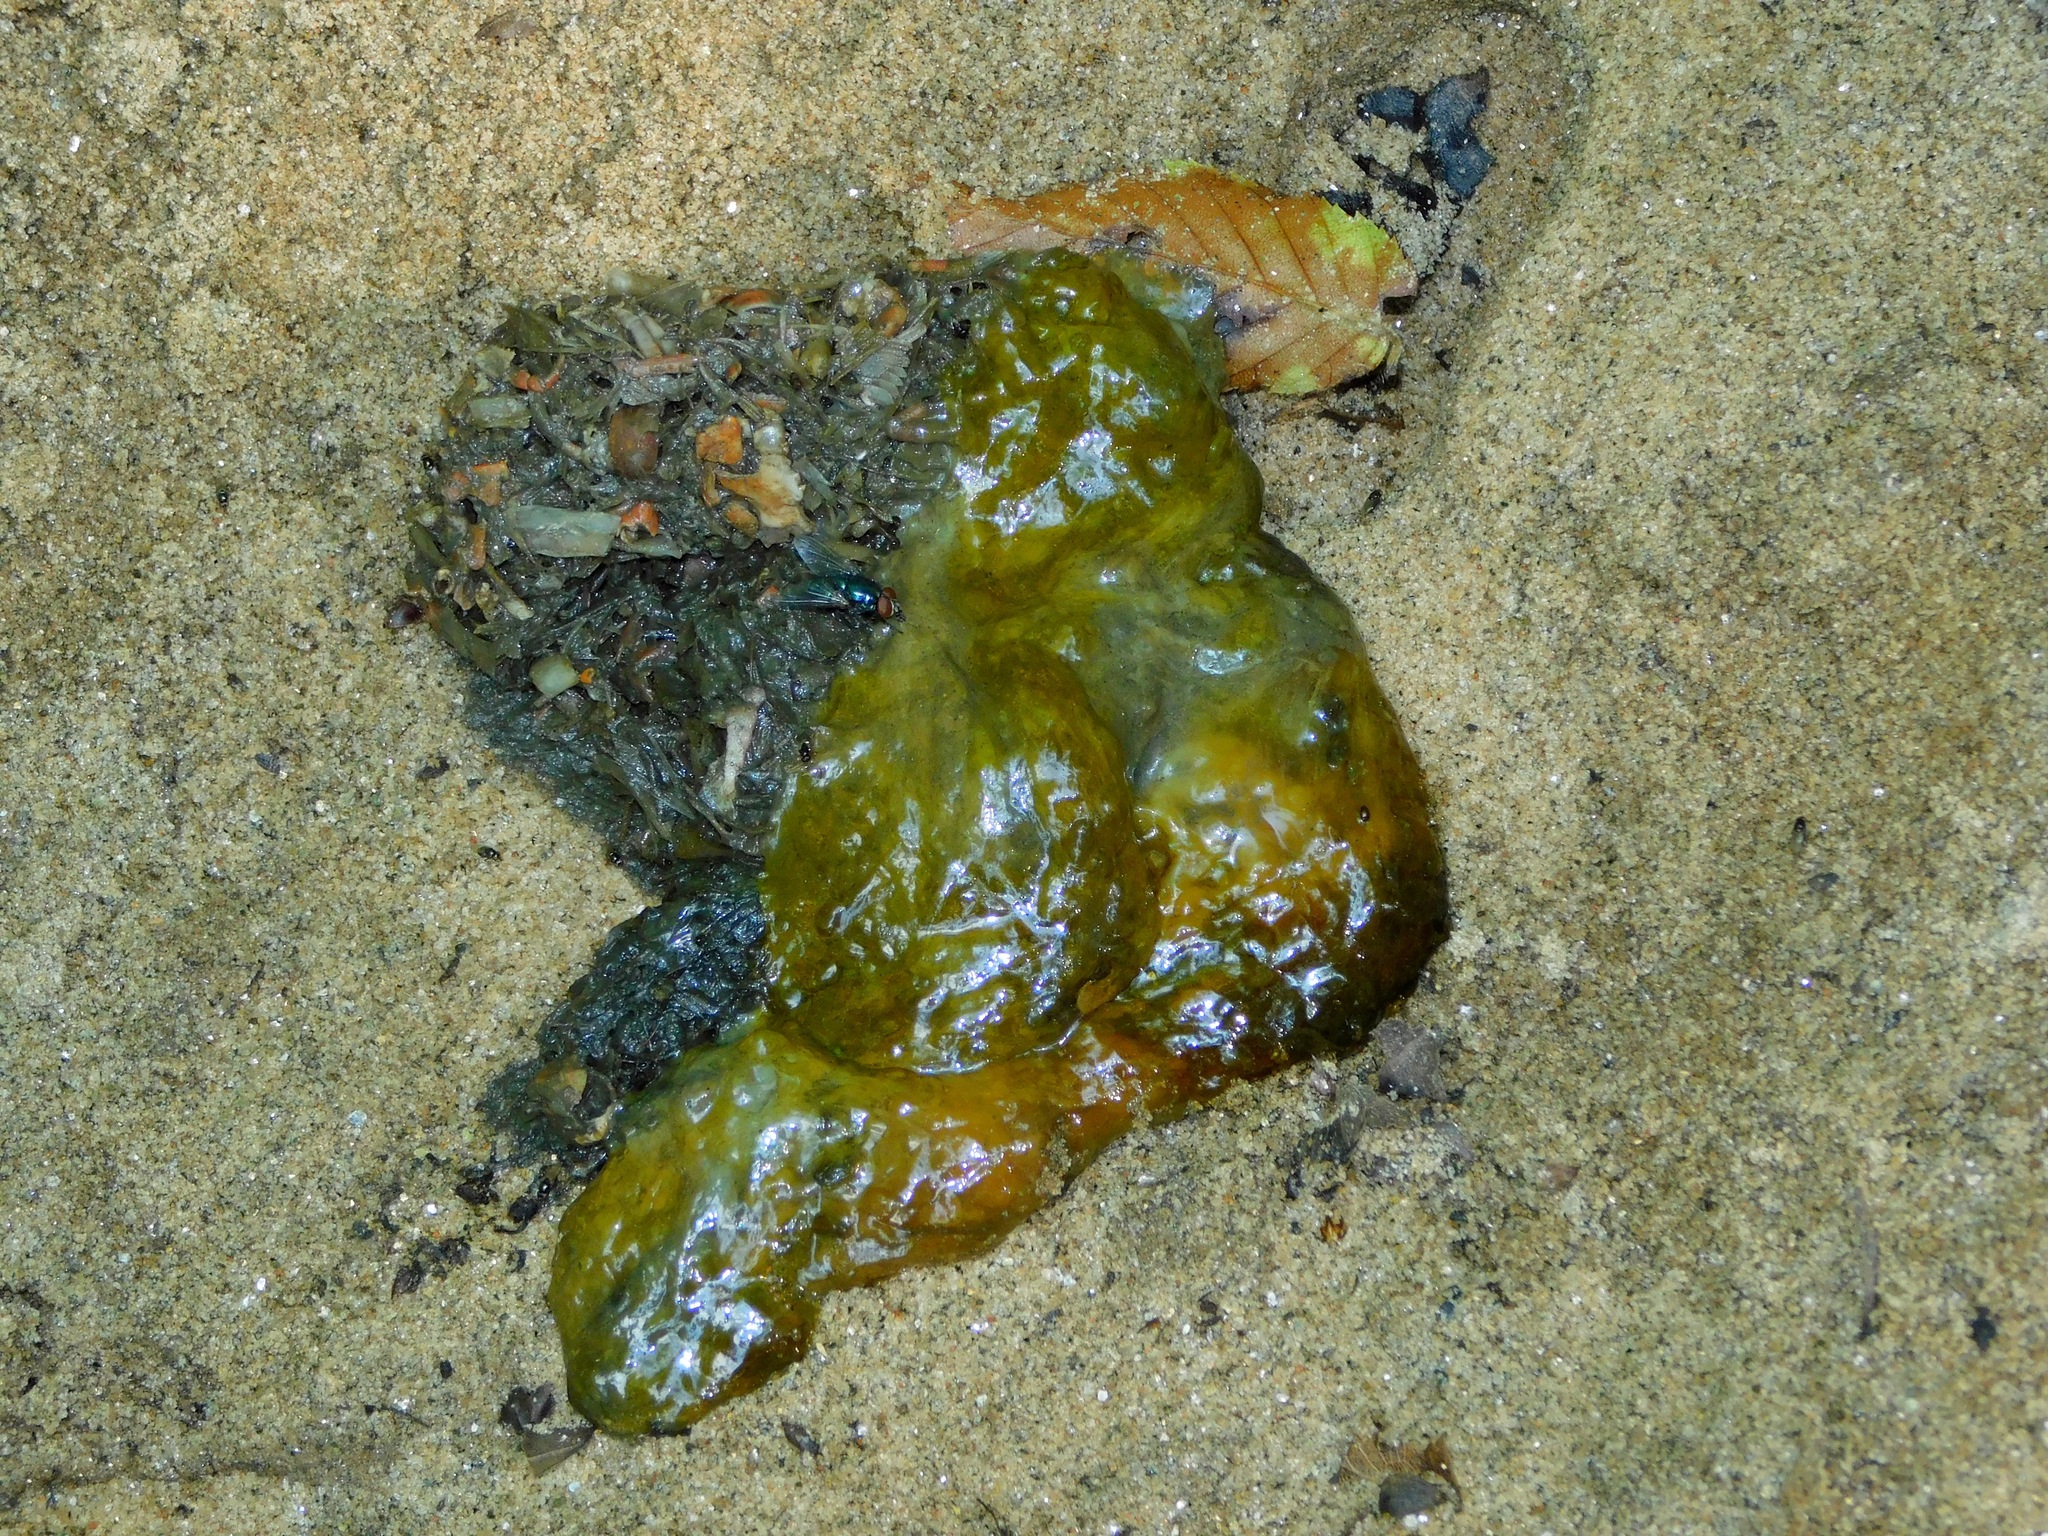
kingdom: Animalia
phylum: Chordata
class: Mammalia
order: Carnivora
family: Mustelidae
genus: Lontra
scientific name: Lontra canadensis
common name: North american river otter
